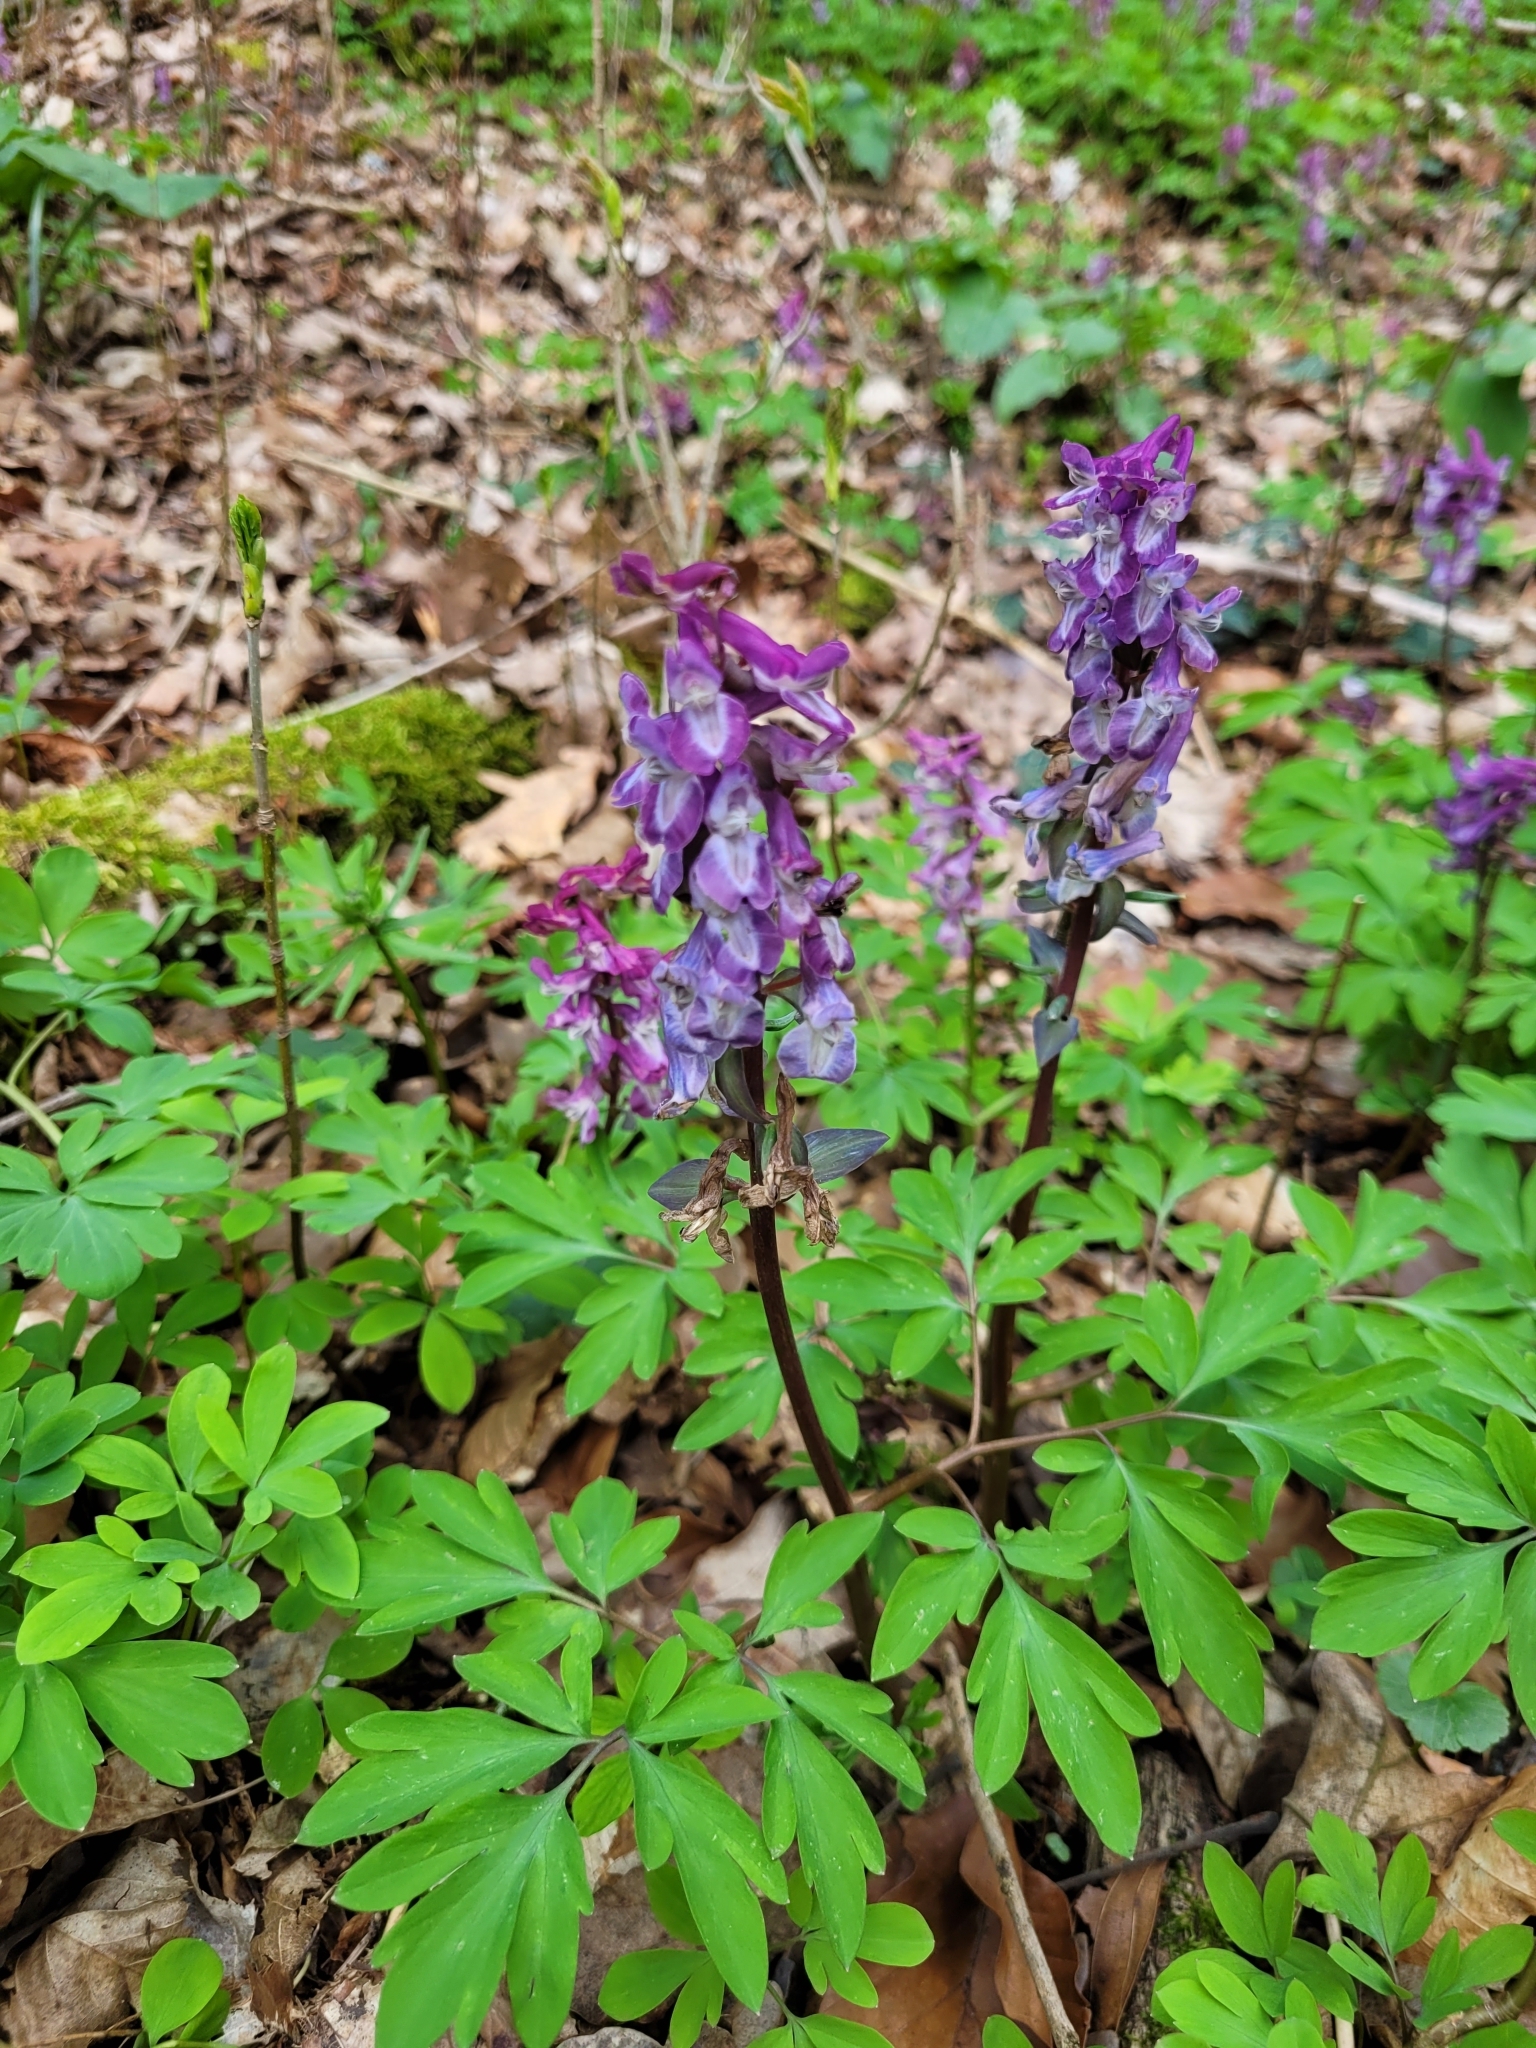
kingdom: Plantae
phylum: Tracheophyta
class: Magnoliopsida
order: Ranunculales
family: Papaveraceae
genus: Corydalis
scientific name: Corydalis cava
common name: Hollowroot
